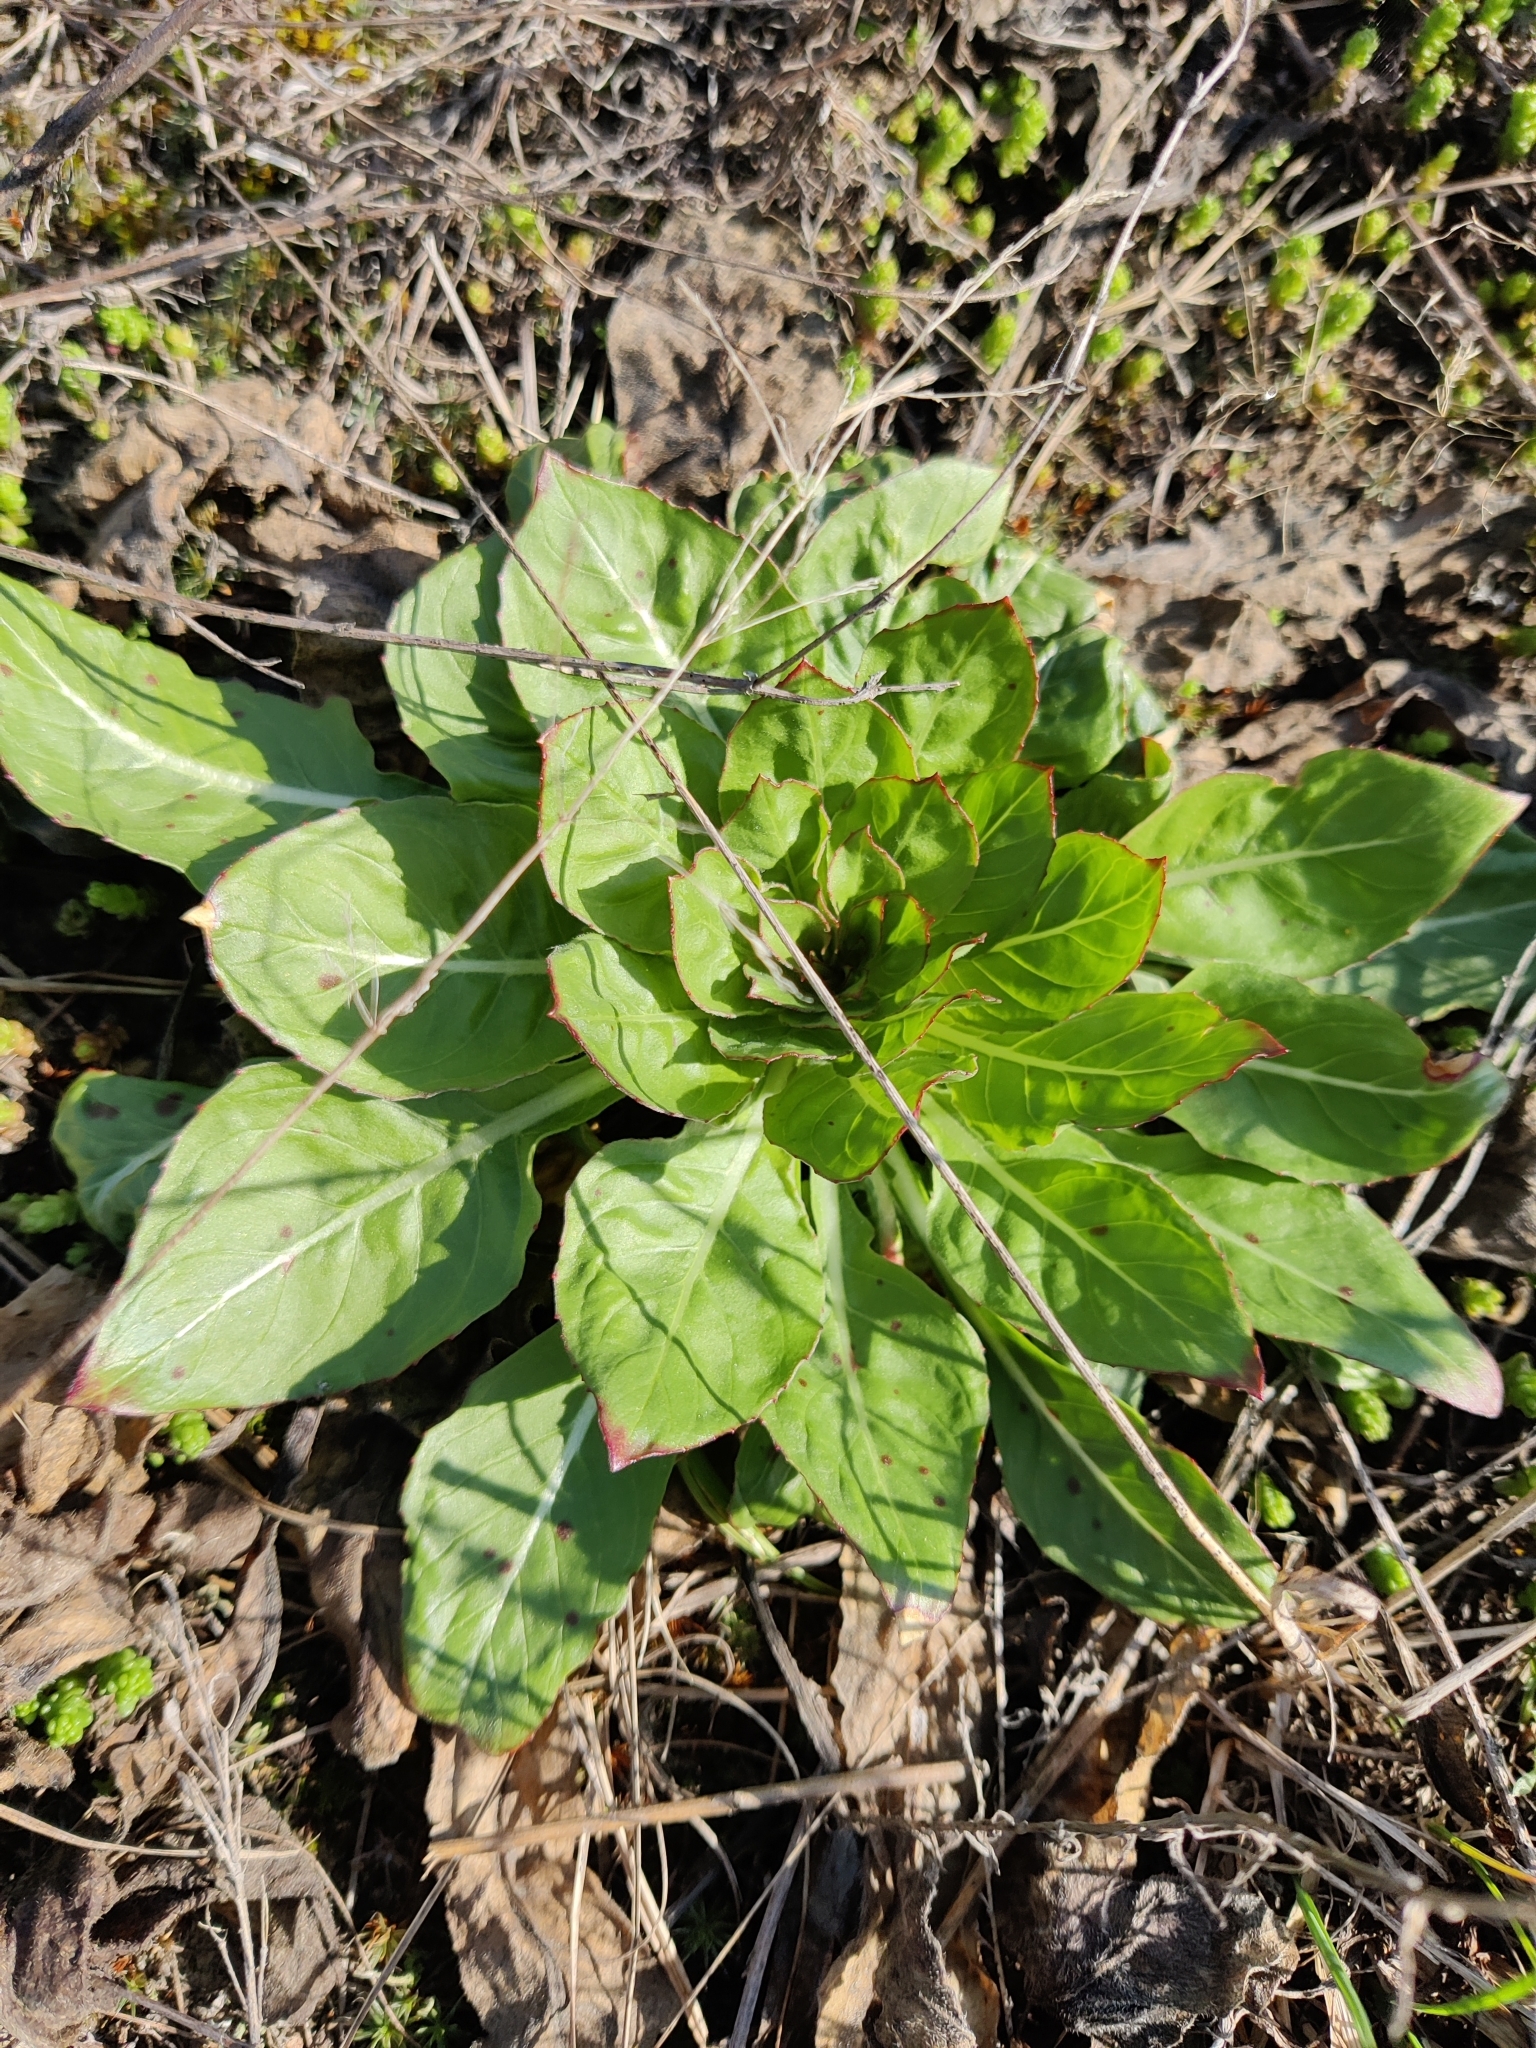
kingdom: Plantae
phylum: Tracheophyta
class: Magnoliopsida
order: Myrtales
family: Onagraceae
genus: Oenothera
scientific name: Oenothera
